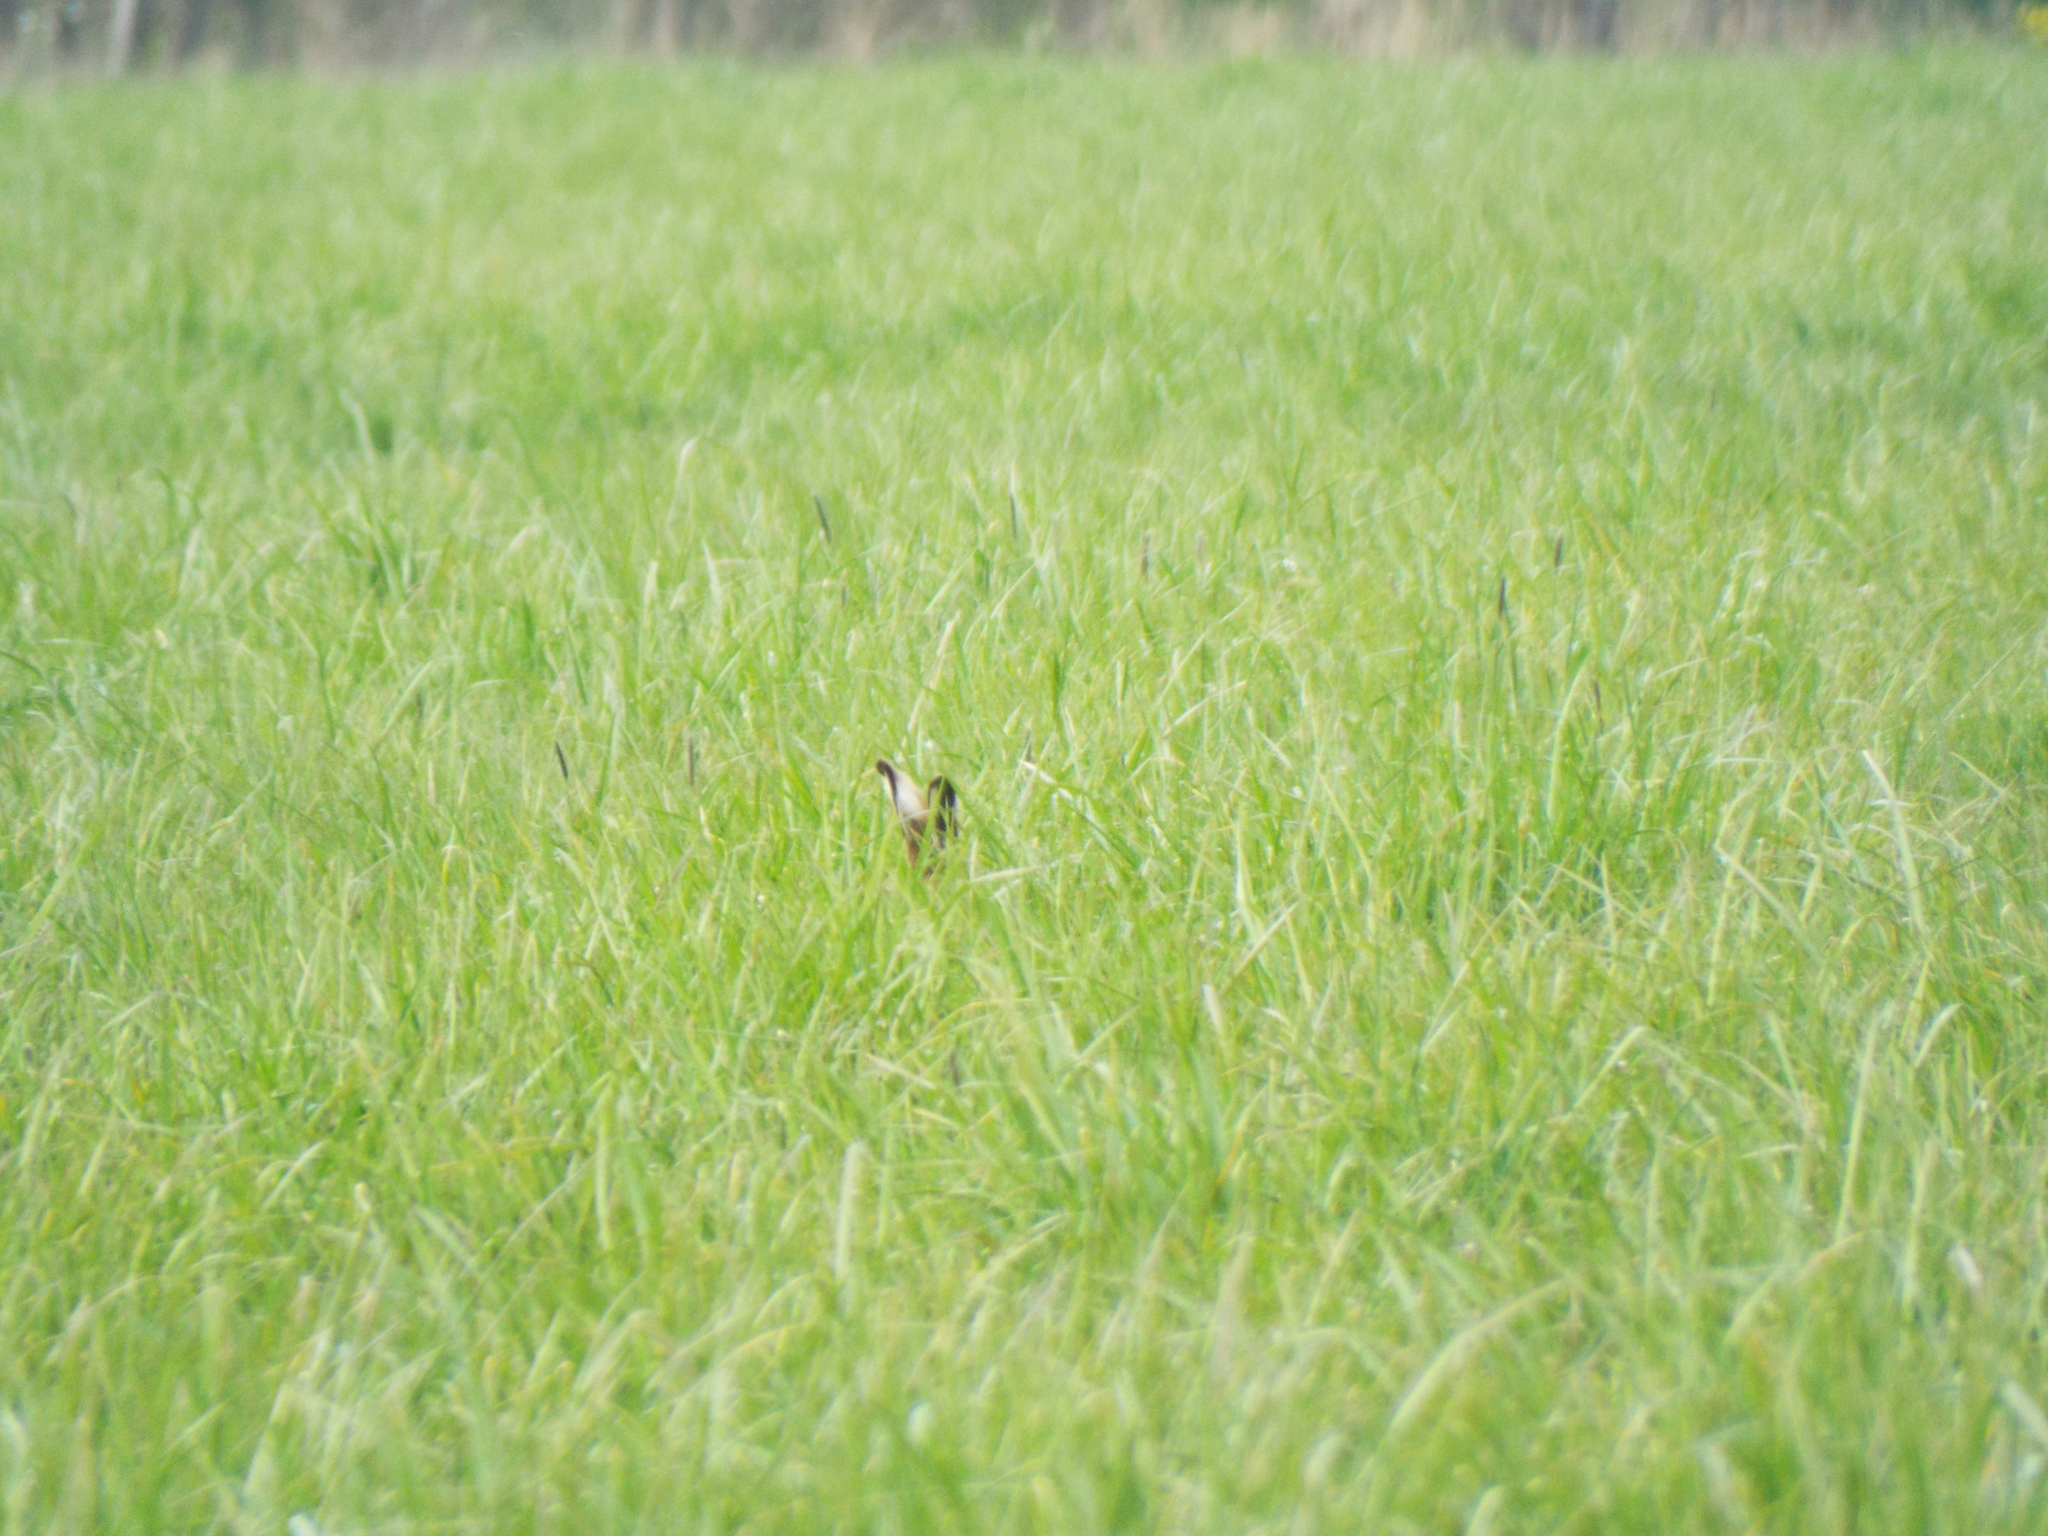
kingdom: Animalia
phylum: Chordata
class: Mammalia
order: Lagomorpha
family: Leporidae
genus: Lepus
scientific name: Lepus europaeus
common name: European hare
